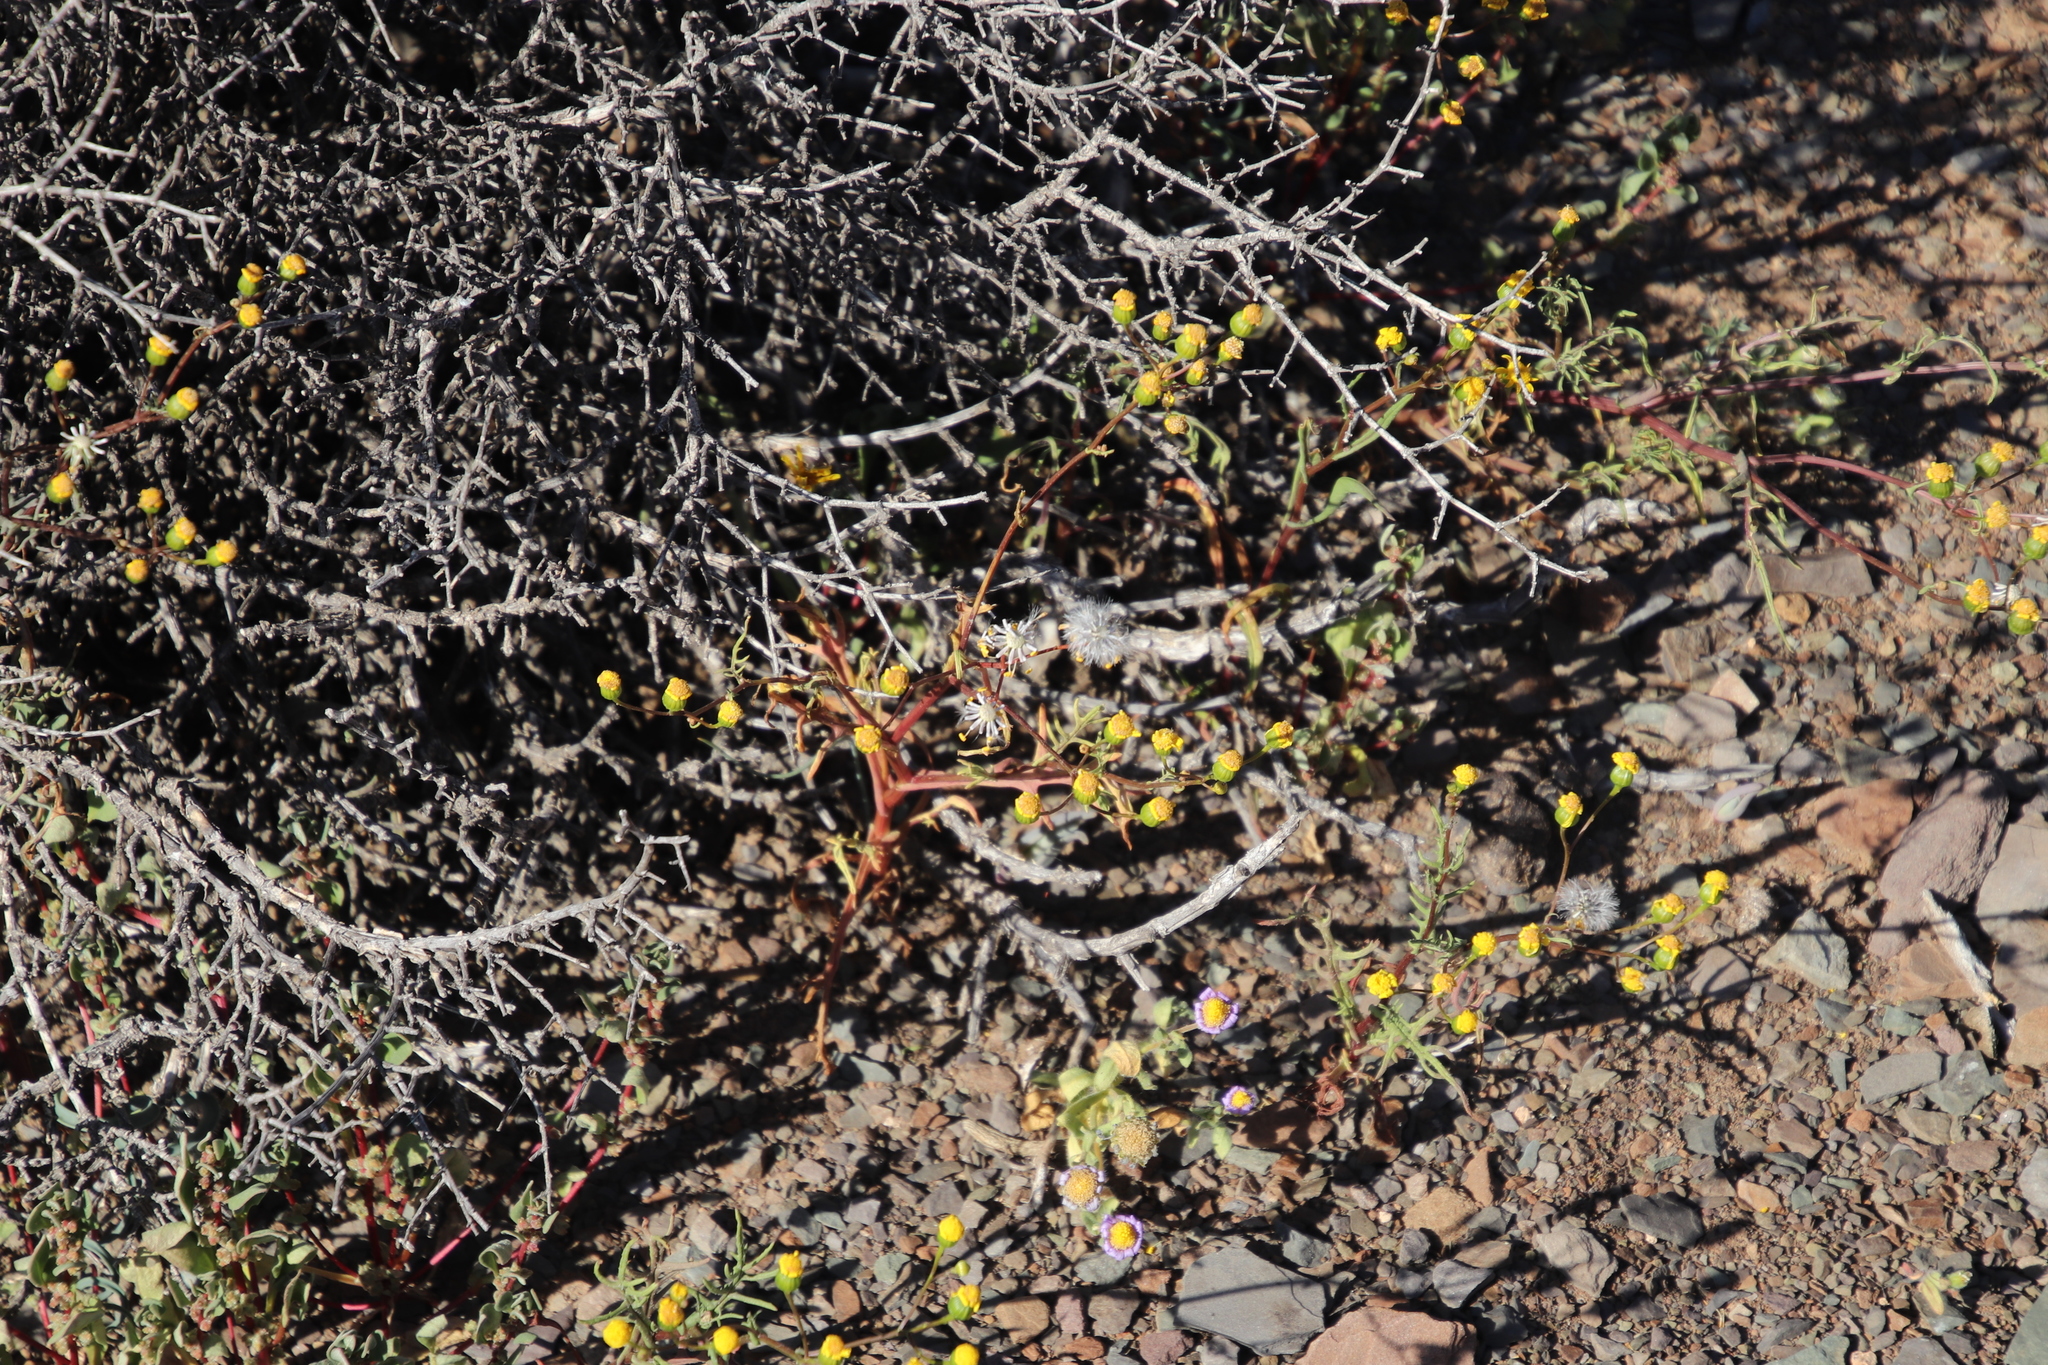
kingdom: Plantae
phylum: Tracheophyta
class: Magnoliopsida
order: Asterales
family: Asteraceae
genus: Senecio
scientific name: Senecio abruptus
